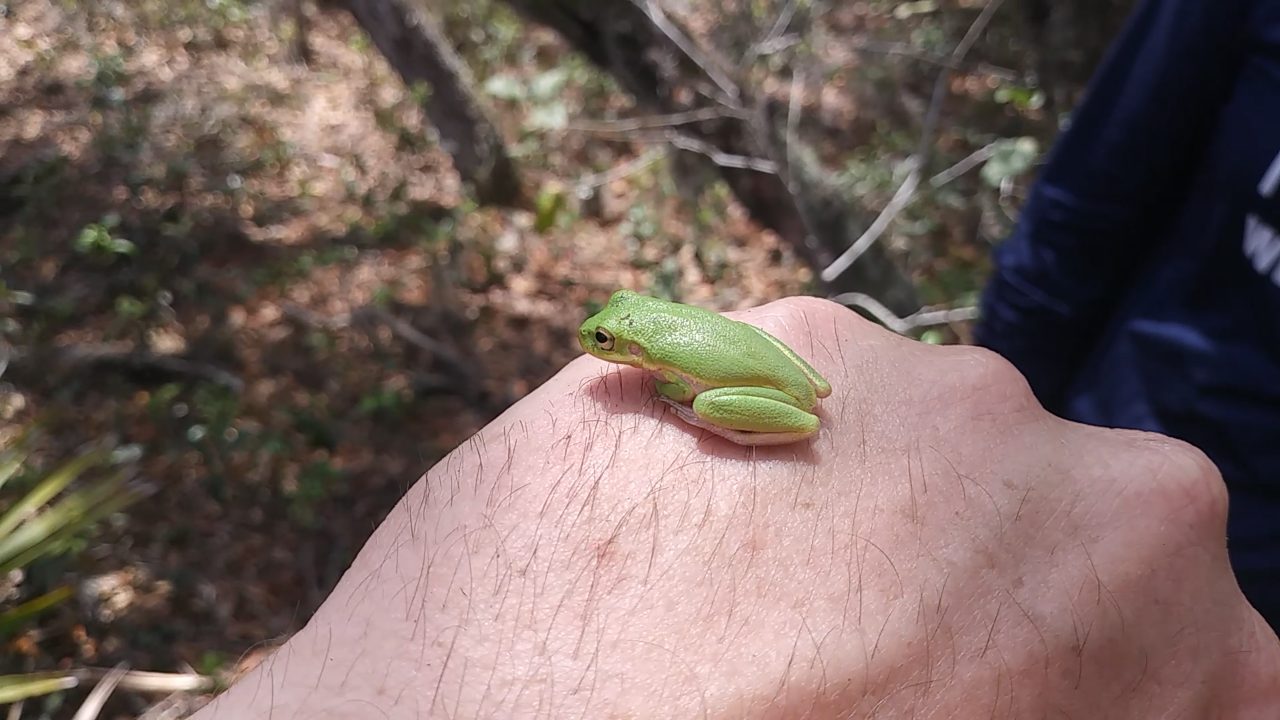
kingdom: Animalia
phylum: Chordata
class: Amphibia
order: Anura
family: Hylidae
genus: Dryophytes
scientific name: Dryophytes squirellus
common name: Squirrel treefrog
